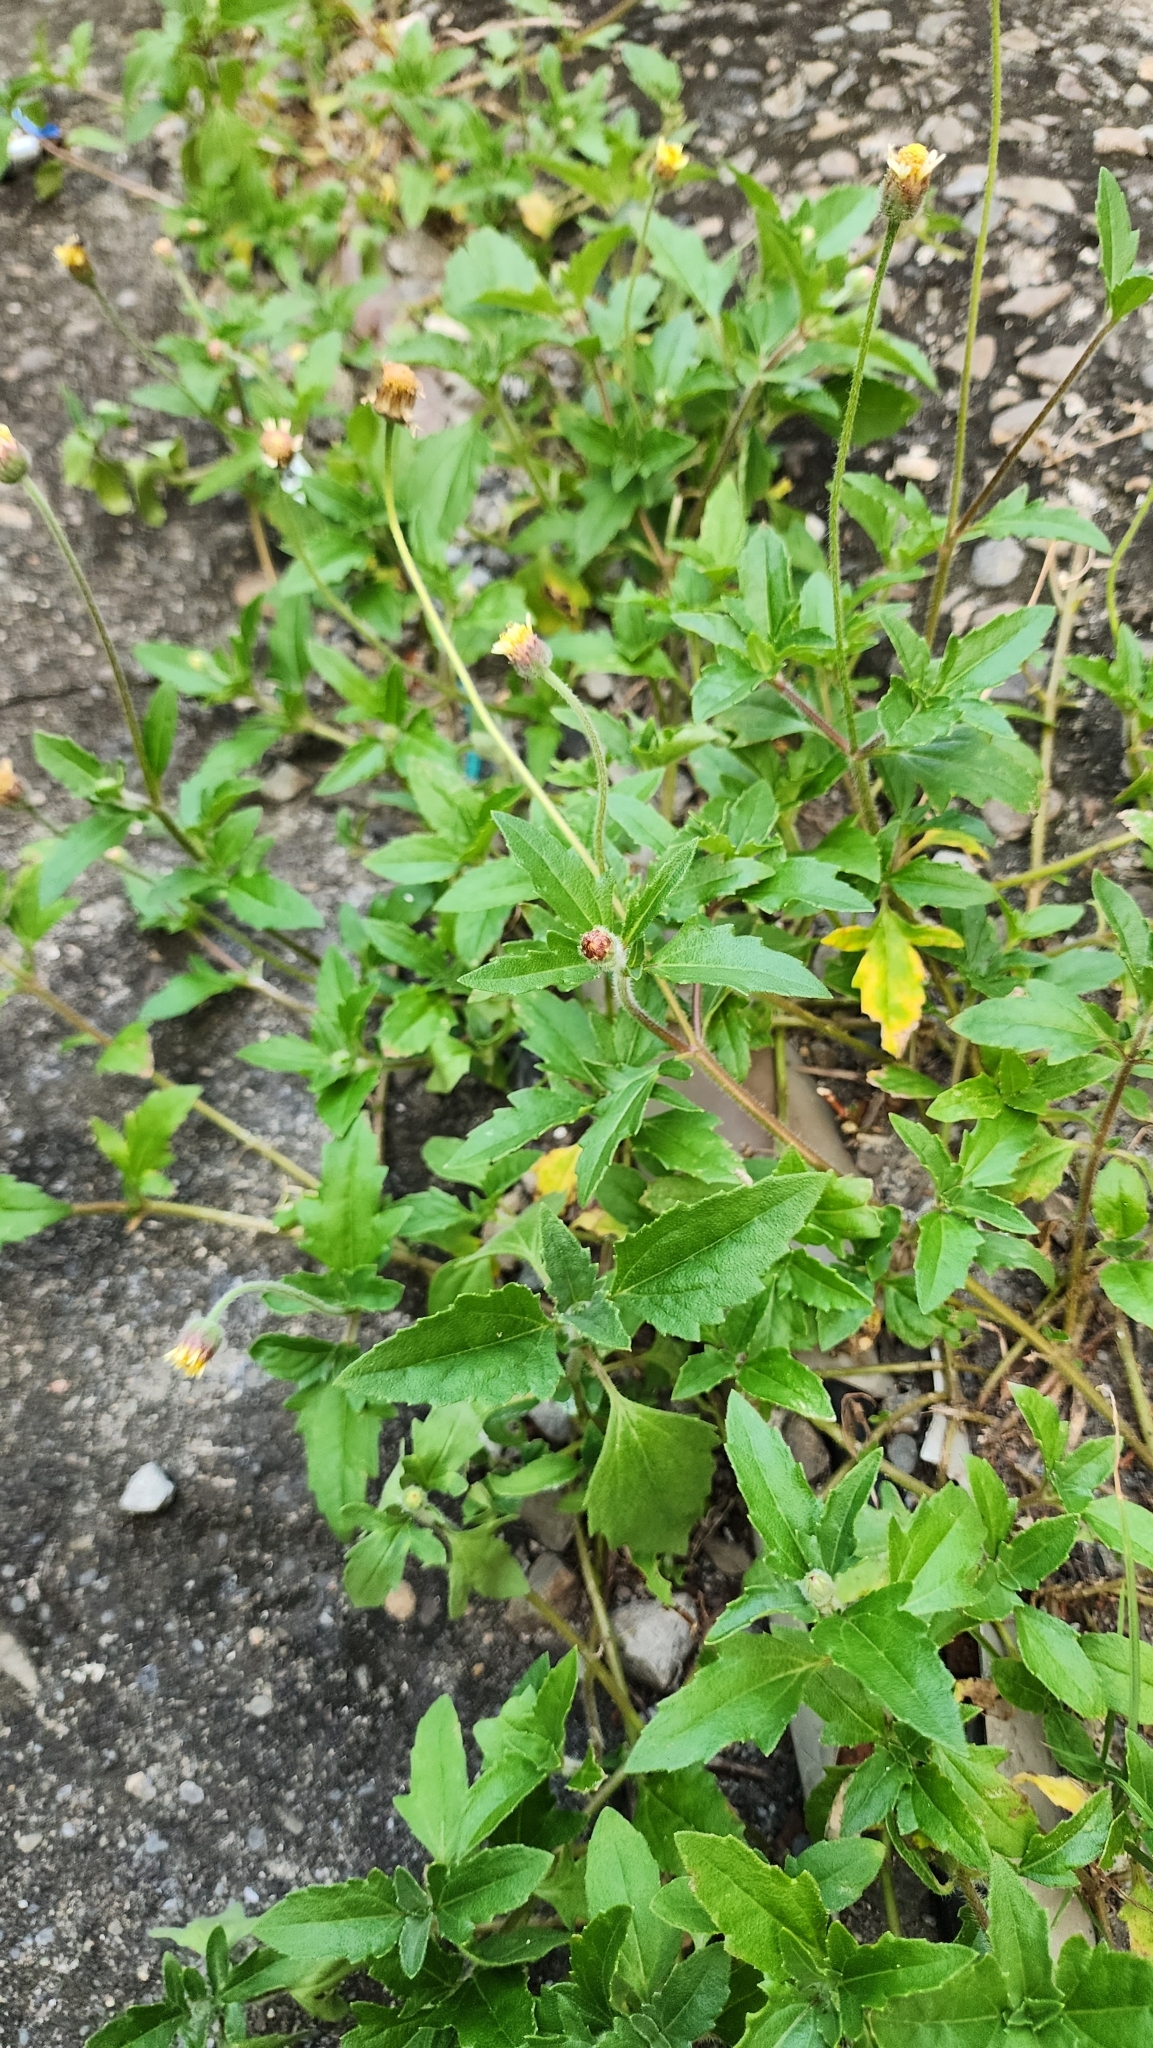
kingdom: Plantae
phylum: Tracheophyta
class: Magnoliopsida
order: Asterales
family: Asteraceae
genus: Tridax
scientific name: Tridax procumbens
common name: Coatbuttons
